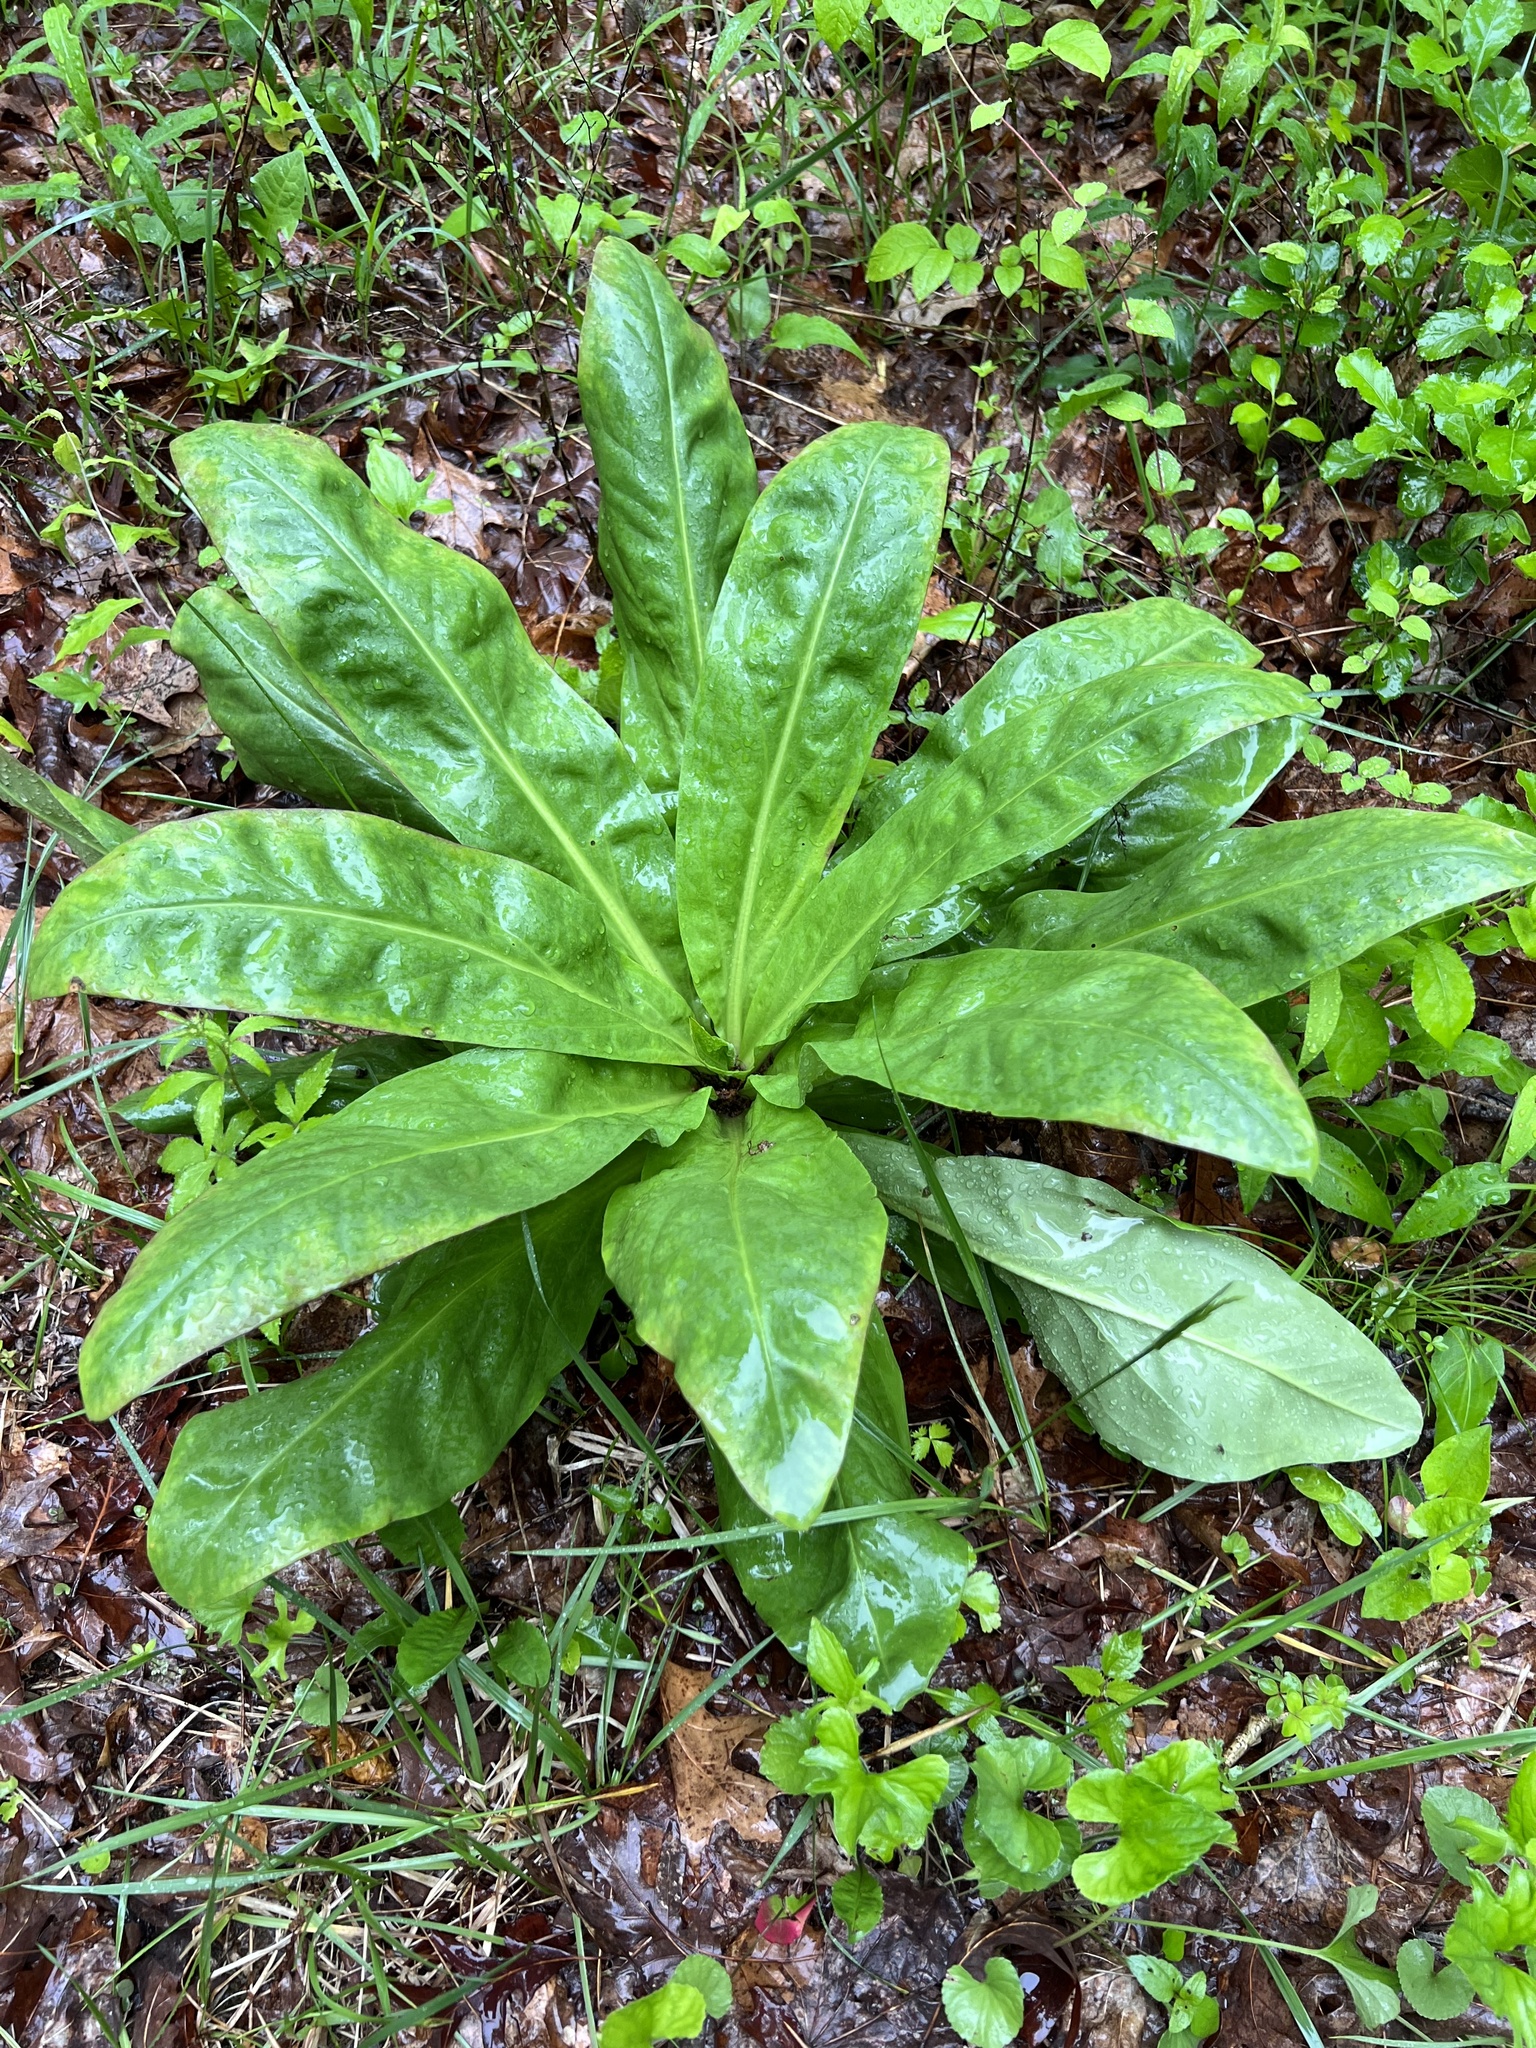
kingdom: Plantae
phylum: Tracheophyta
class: Magnoliopsida
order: Gentianales
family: Gentianaceae
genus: Frasera
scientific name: Frasera caroliniensis
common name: American columbo
